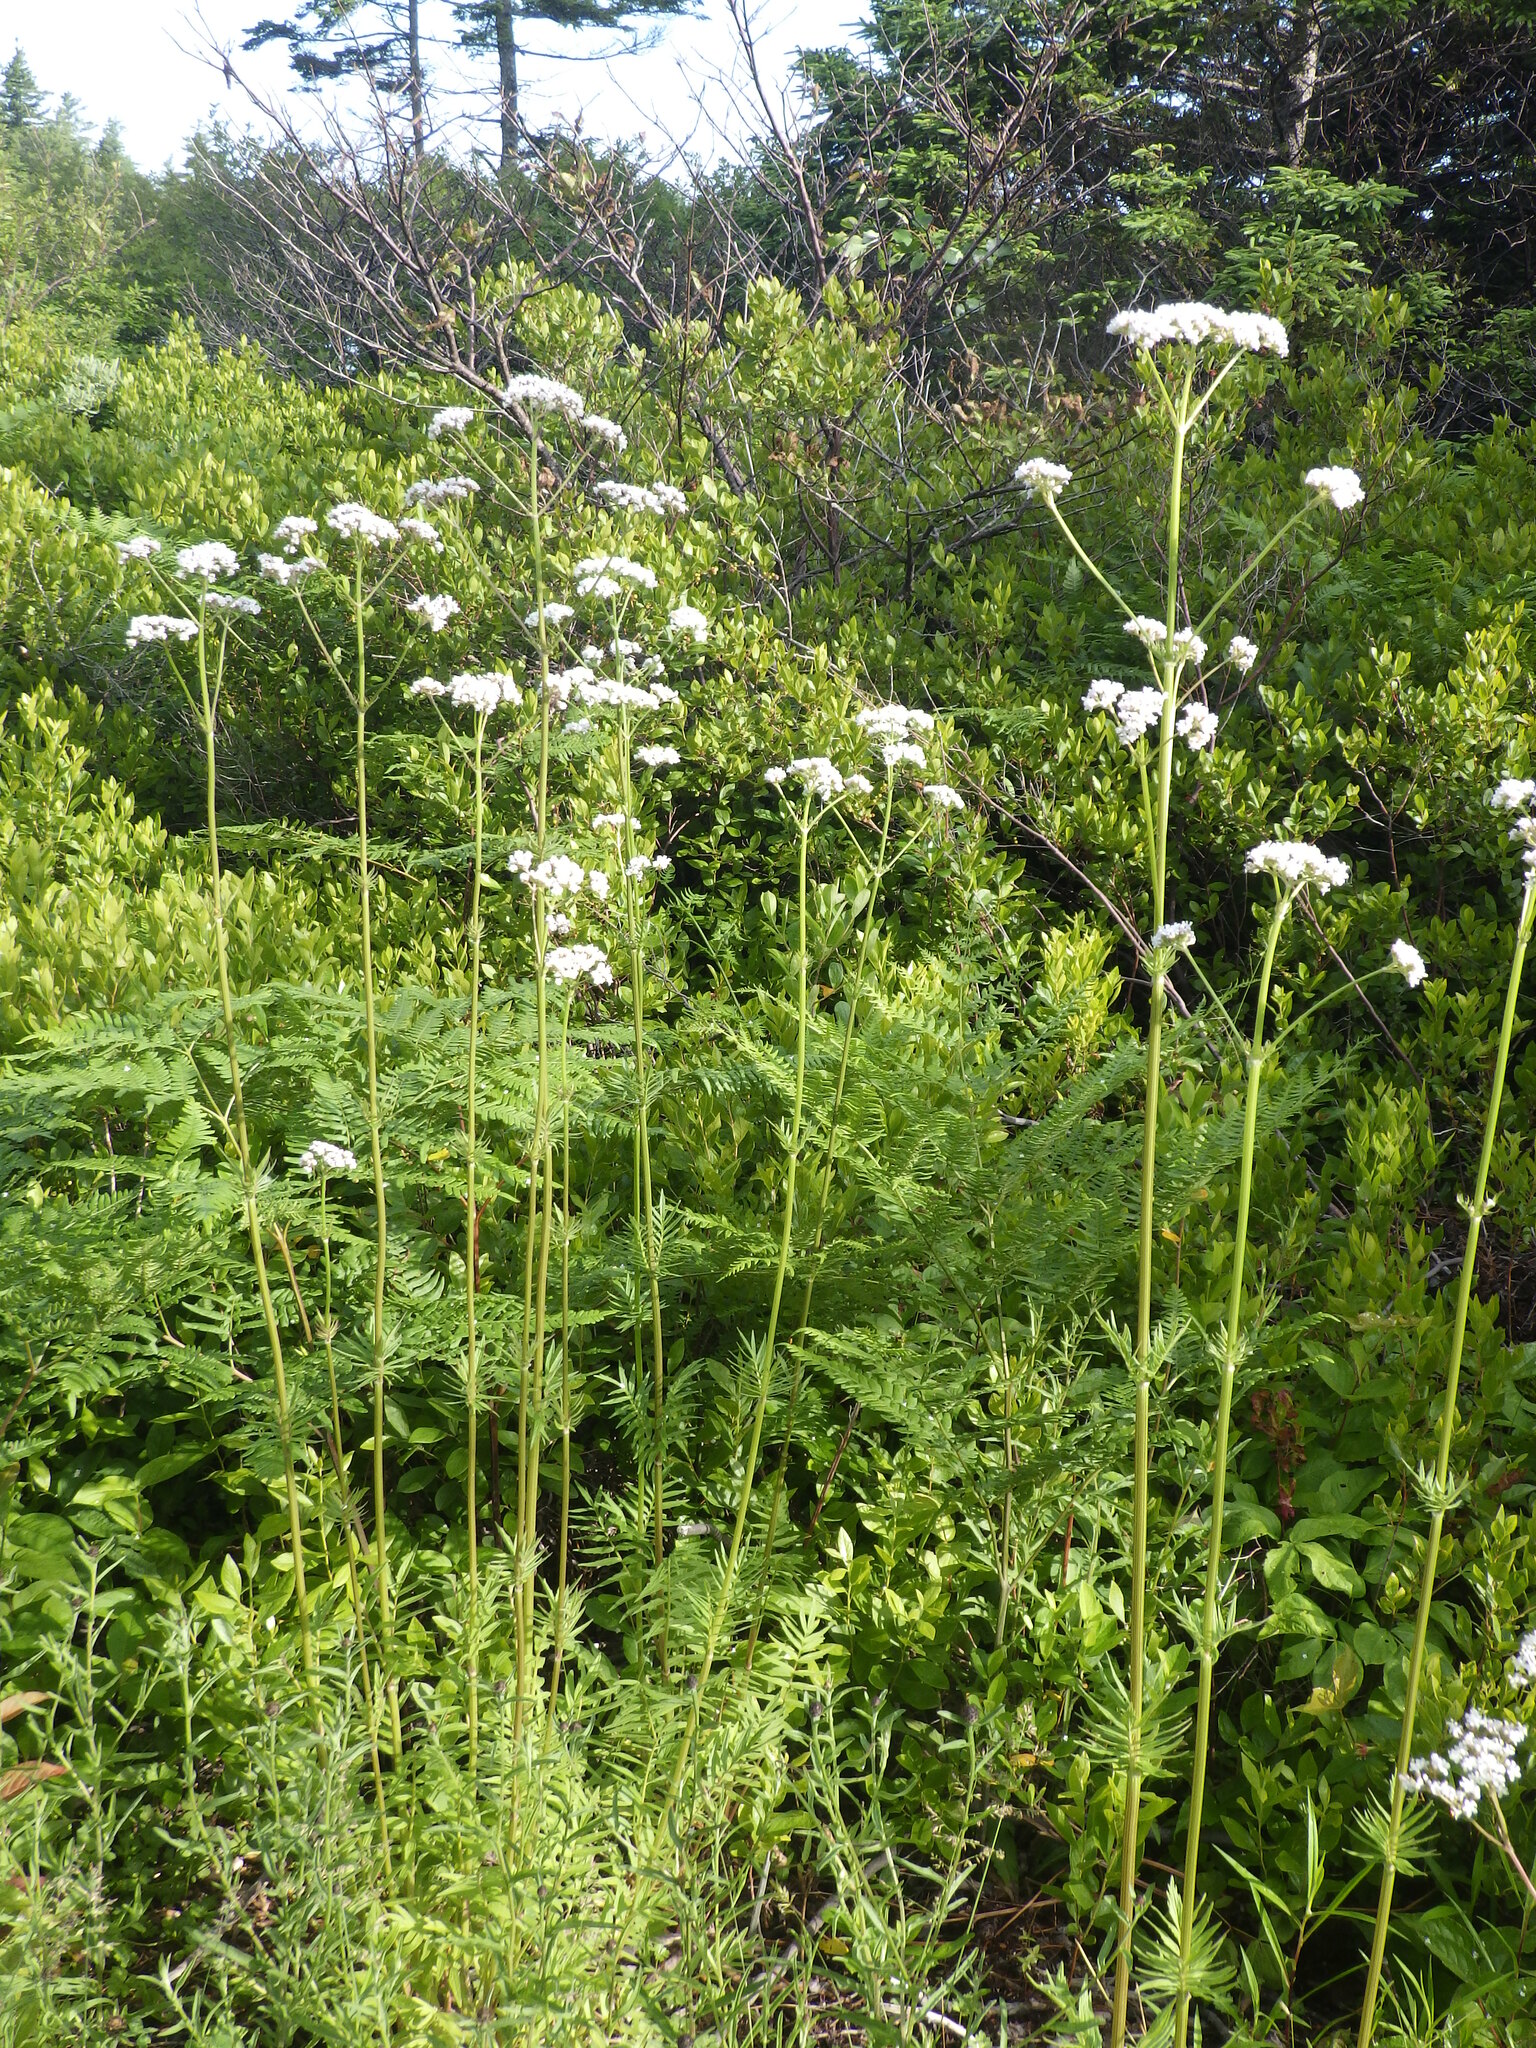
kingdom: Plantae
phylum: Tracheophyta
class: Magnoliopsida
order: Dipsacales
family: Caprifoliaceae
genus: Valeriana
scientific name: Valeriana officinalis
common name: Common valerian
